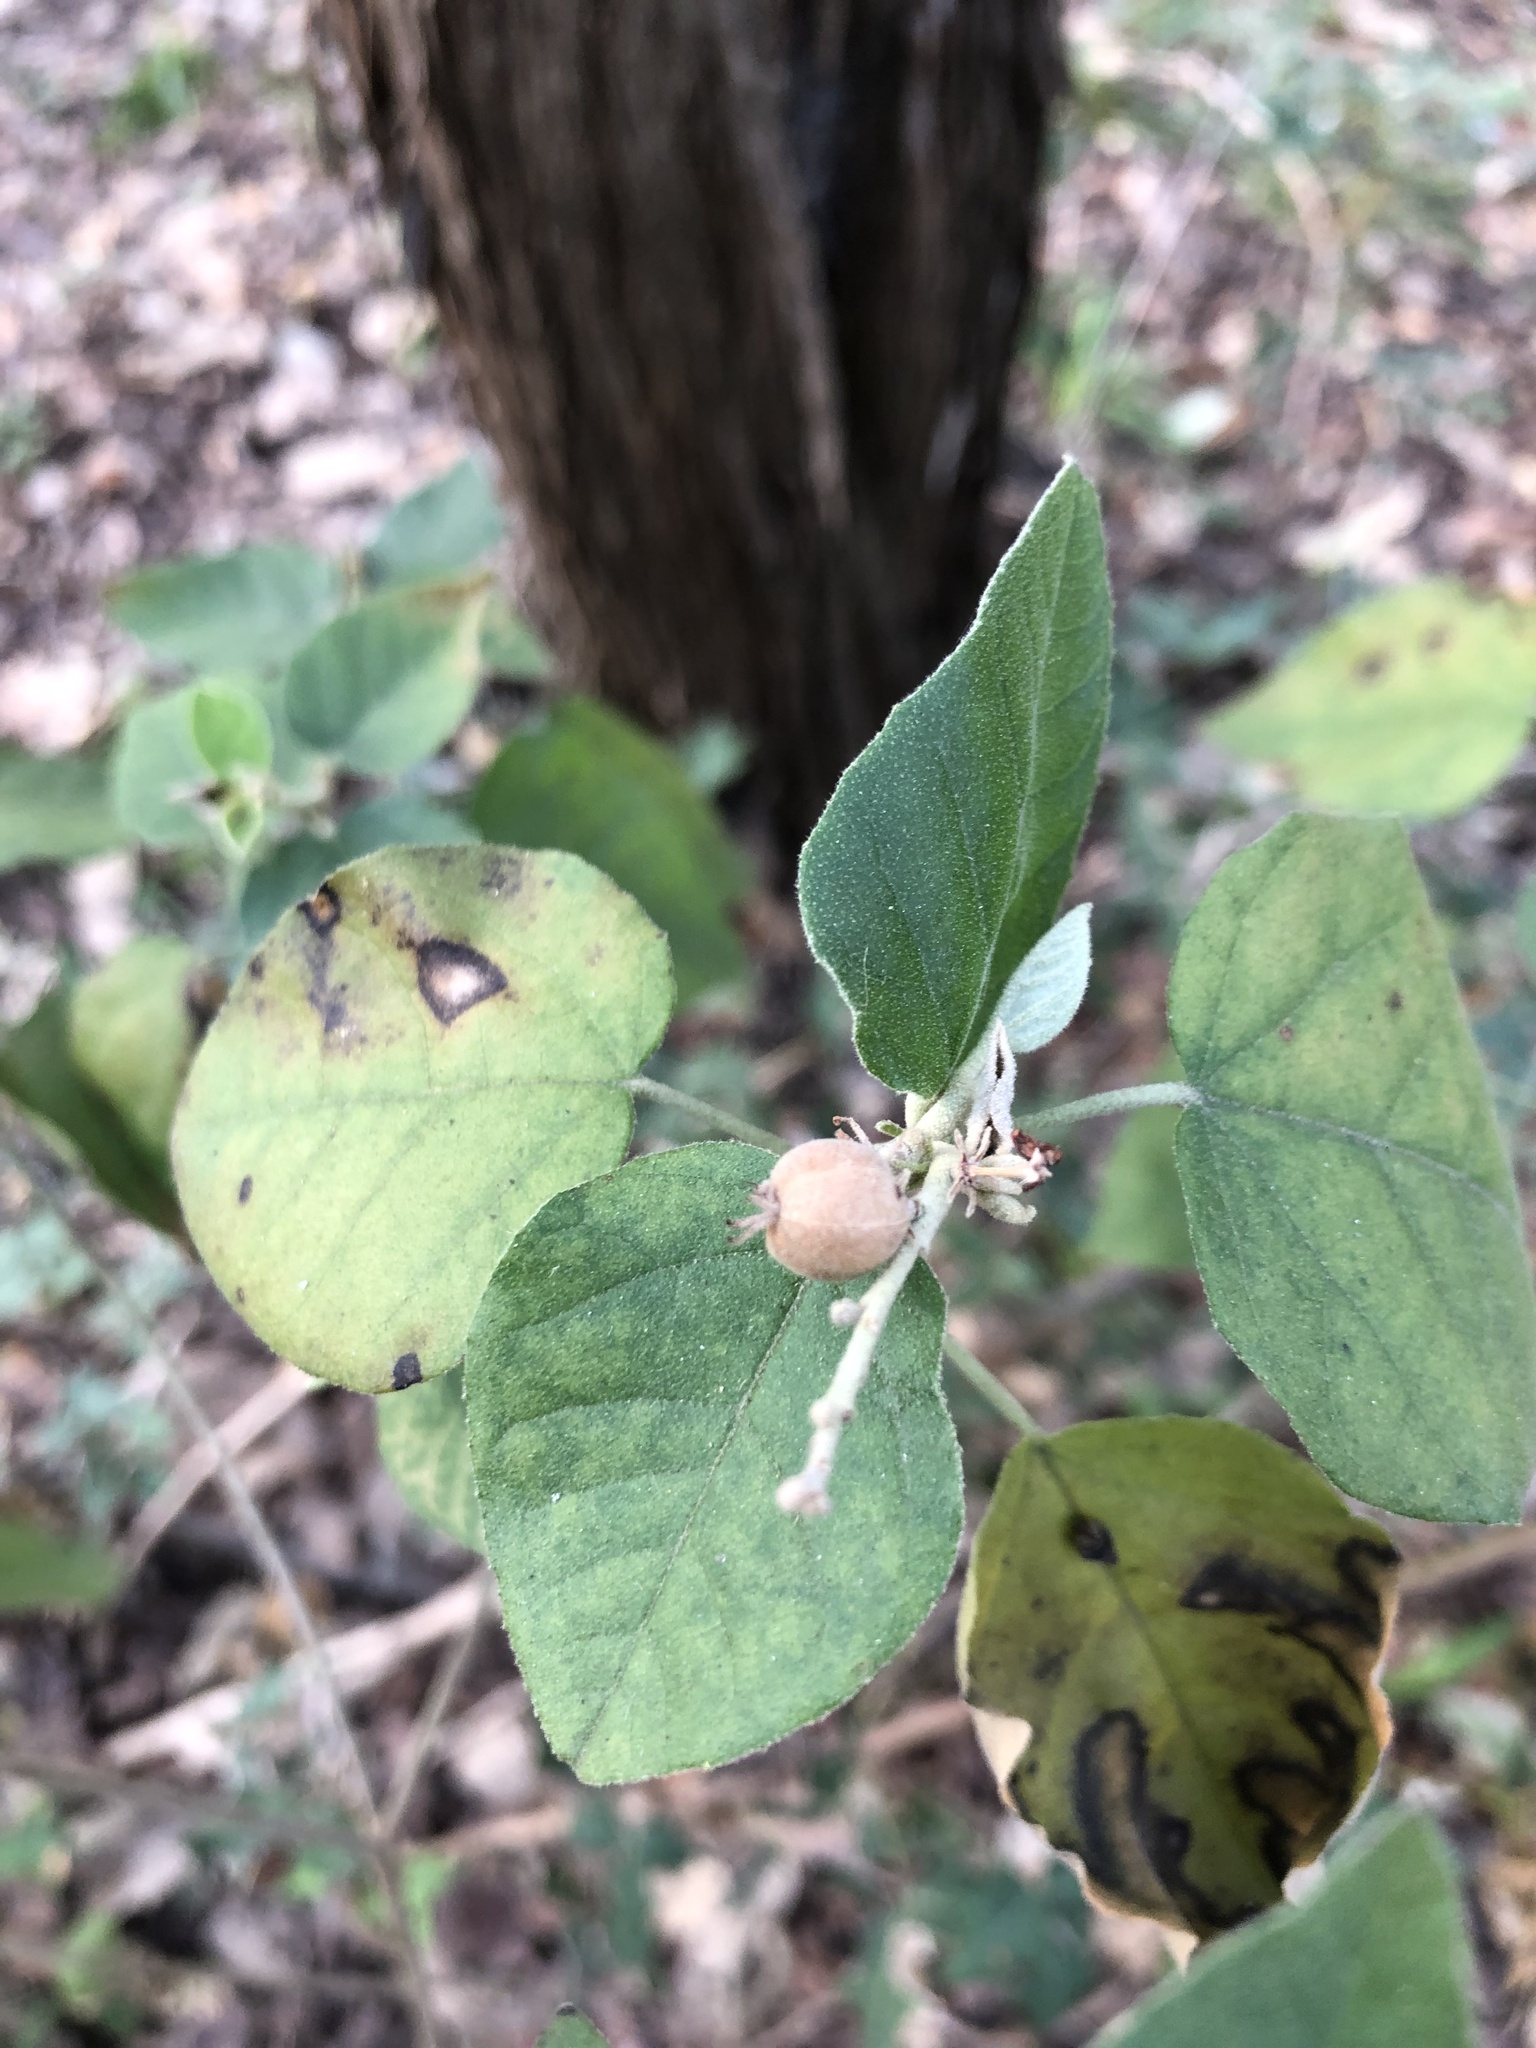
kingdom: Plantae
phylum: Tracheophyta
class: Magnoliopsida
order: Malpighiales
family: Euphorbiaceae
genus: Croton
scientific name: Croton fruticulosus
